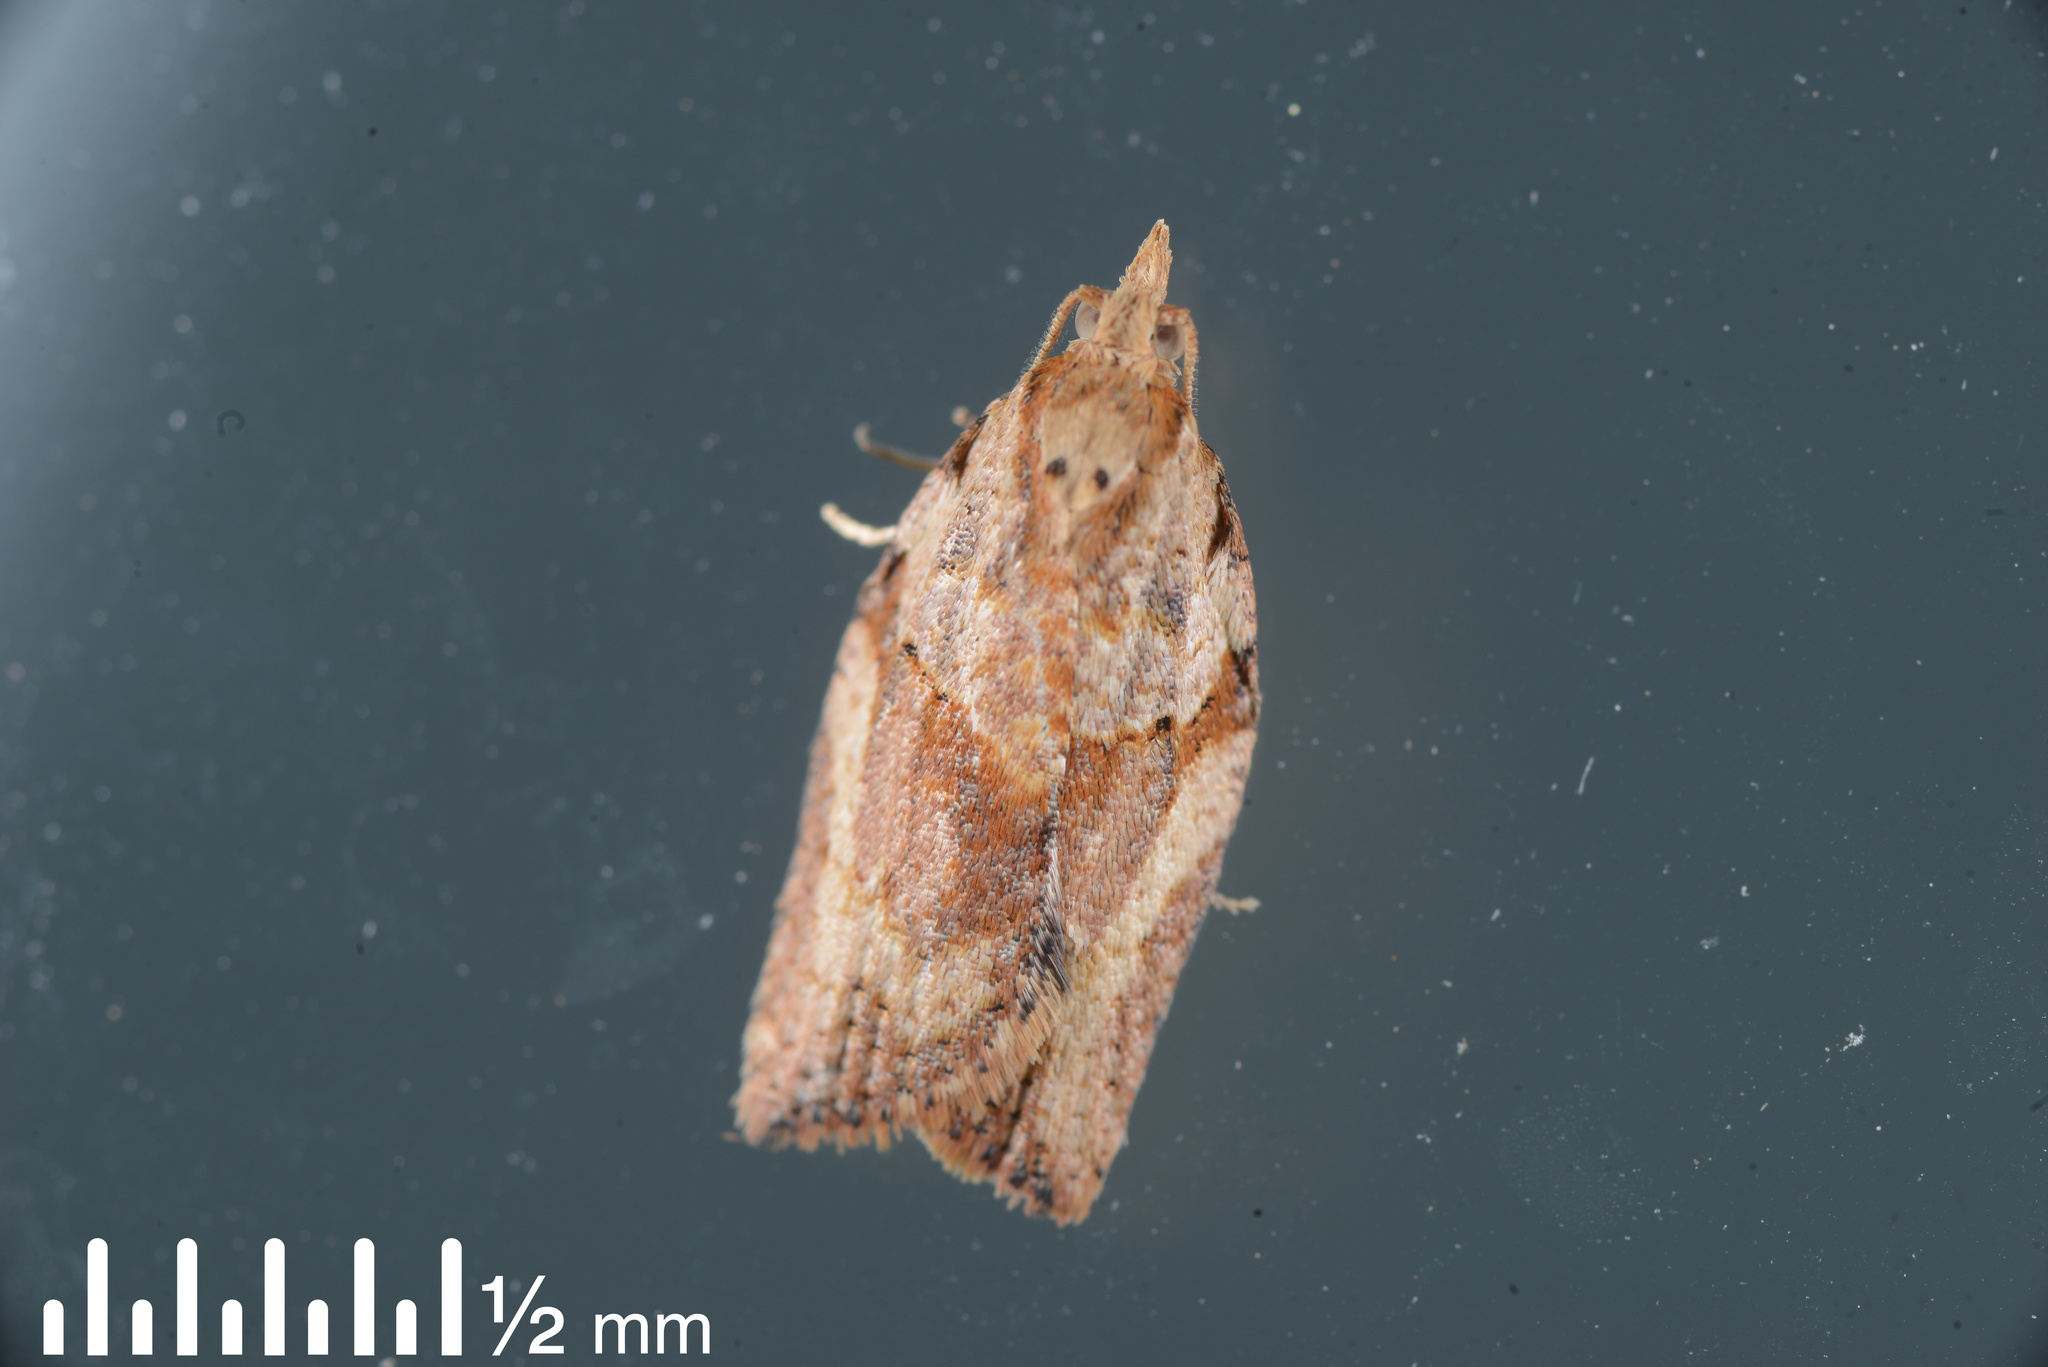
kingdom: Animalia
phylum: Arthropoda
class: Insecta
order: Lepidoptera
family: Tortricidae
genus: Epiphyas
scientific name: Epiphyas postvittana
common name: Light brown apple moth
